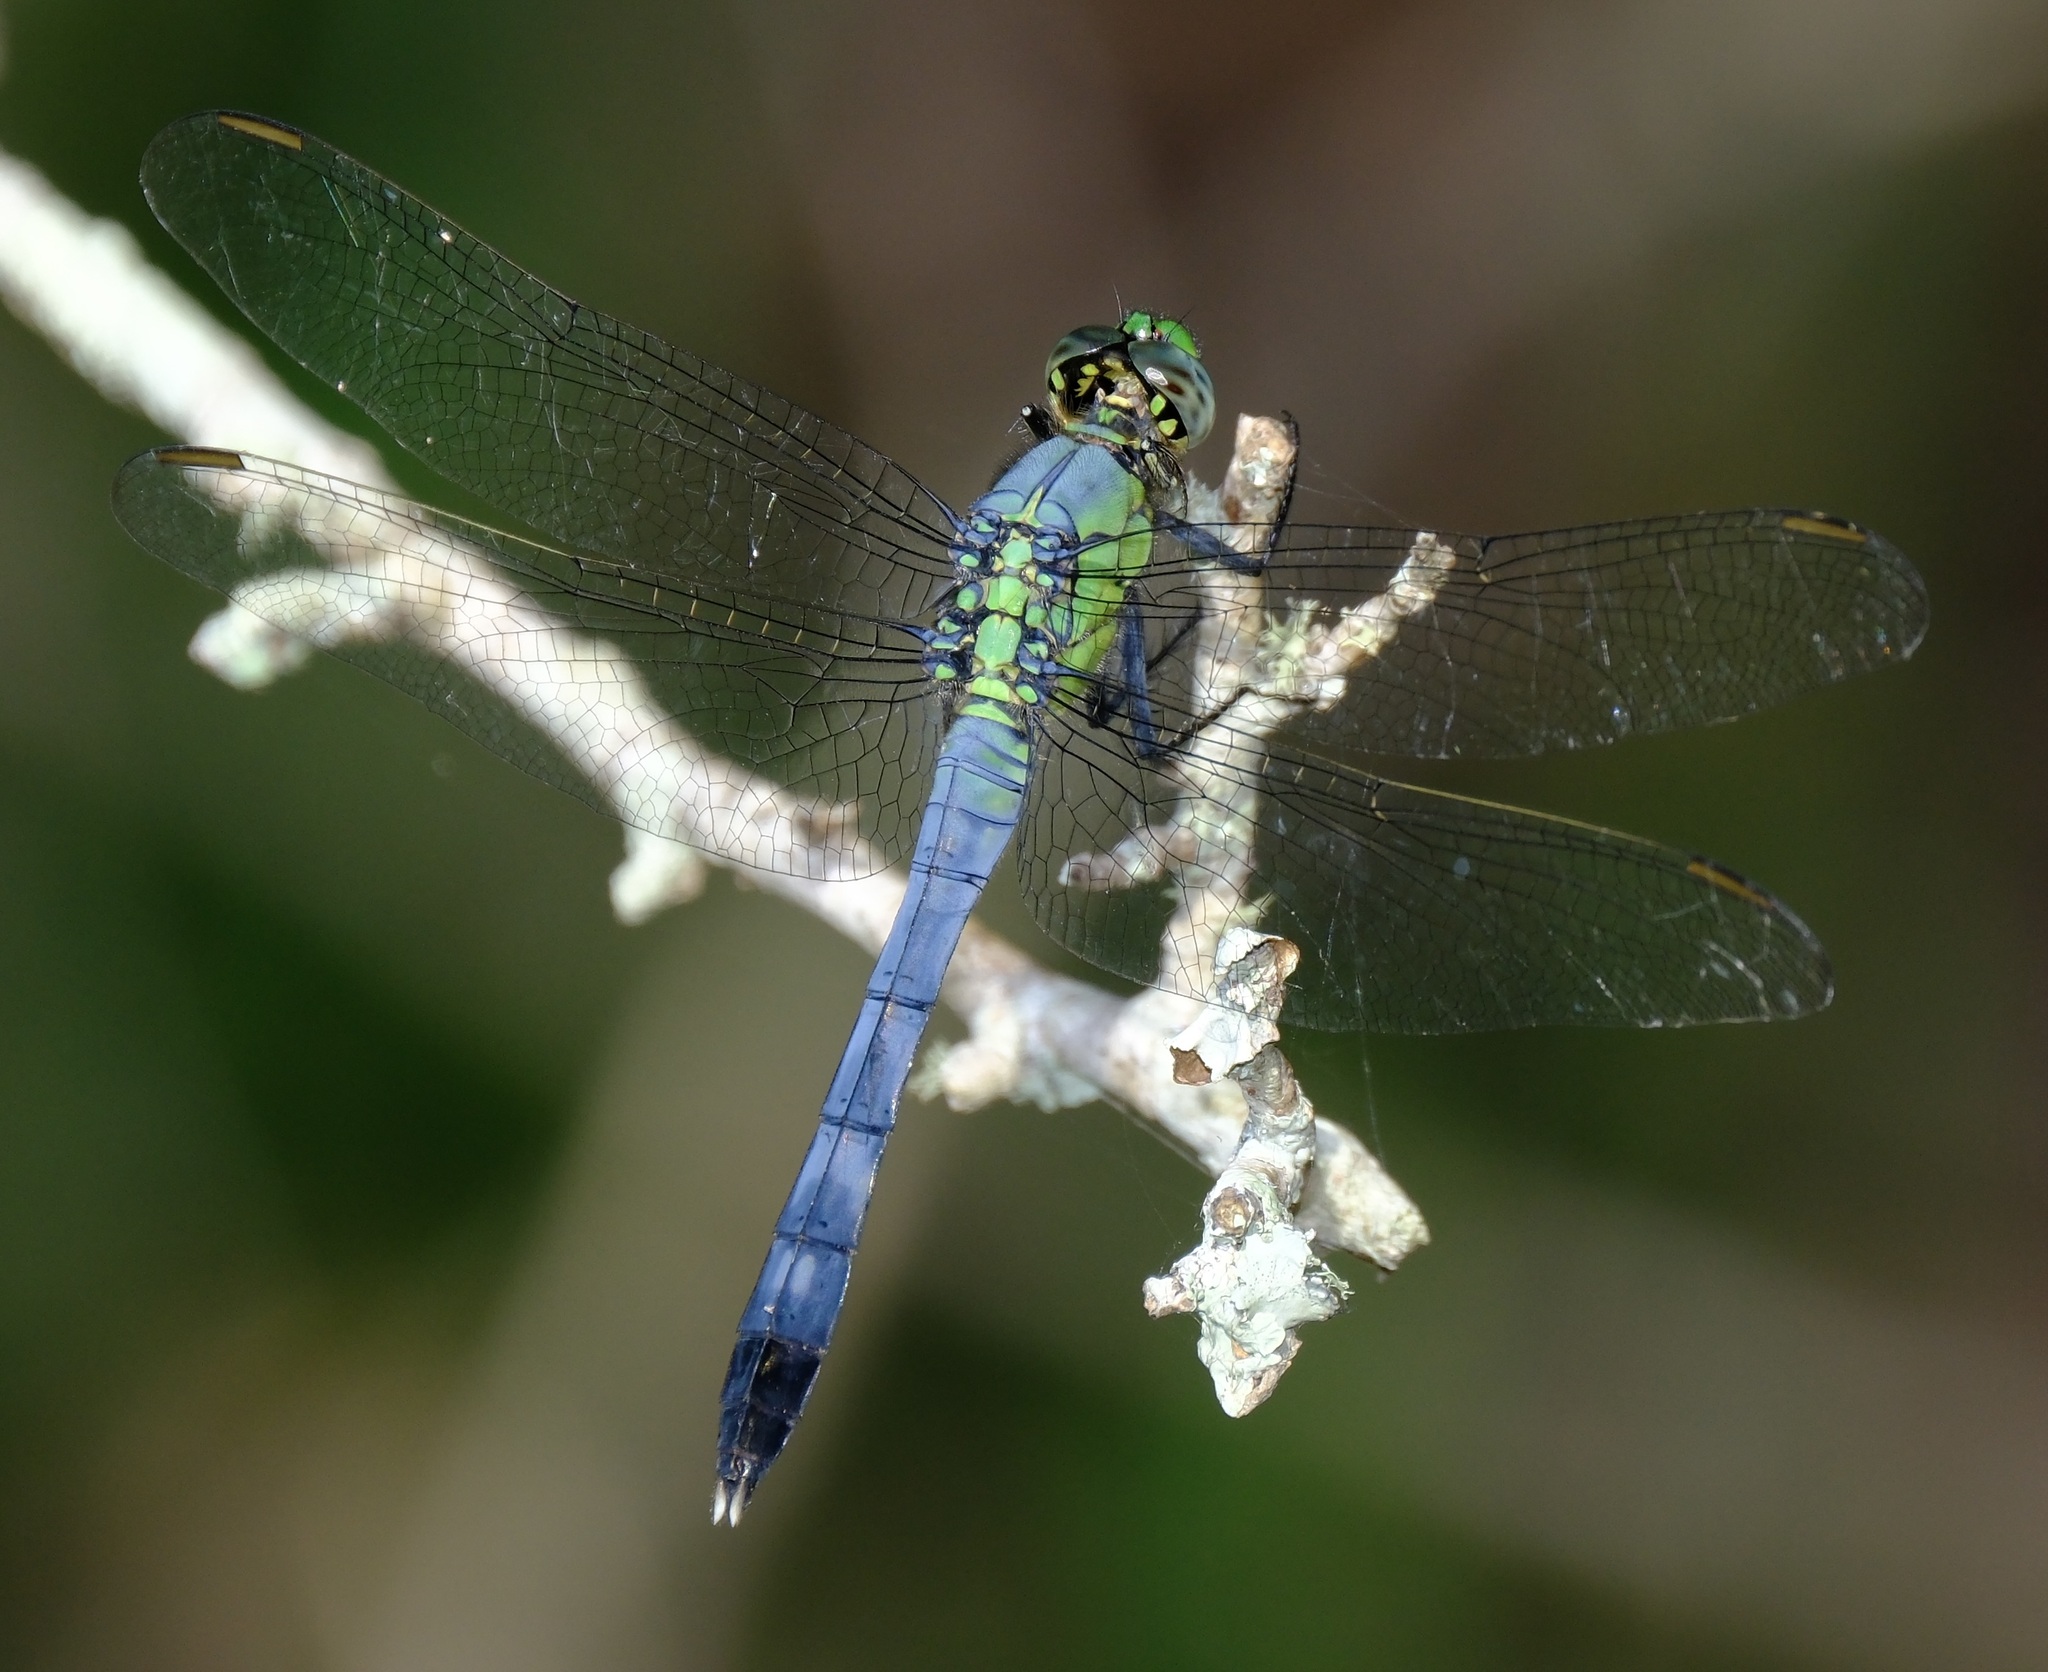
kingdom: Animalia
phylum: Arthropoda
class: Insecta
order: Odonata
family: Libellulidae
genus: Erythemis
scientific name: Erythemis simplicicollis
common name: Eastern pondhawk
